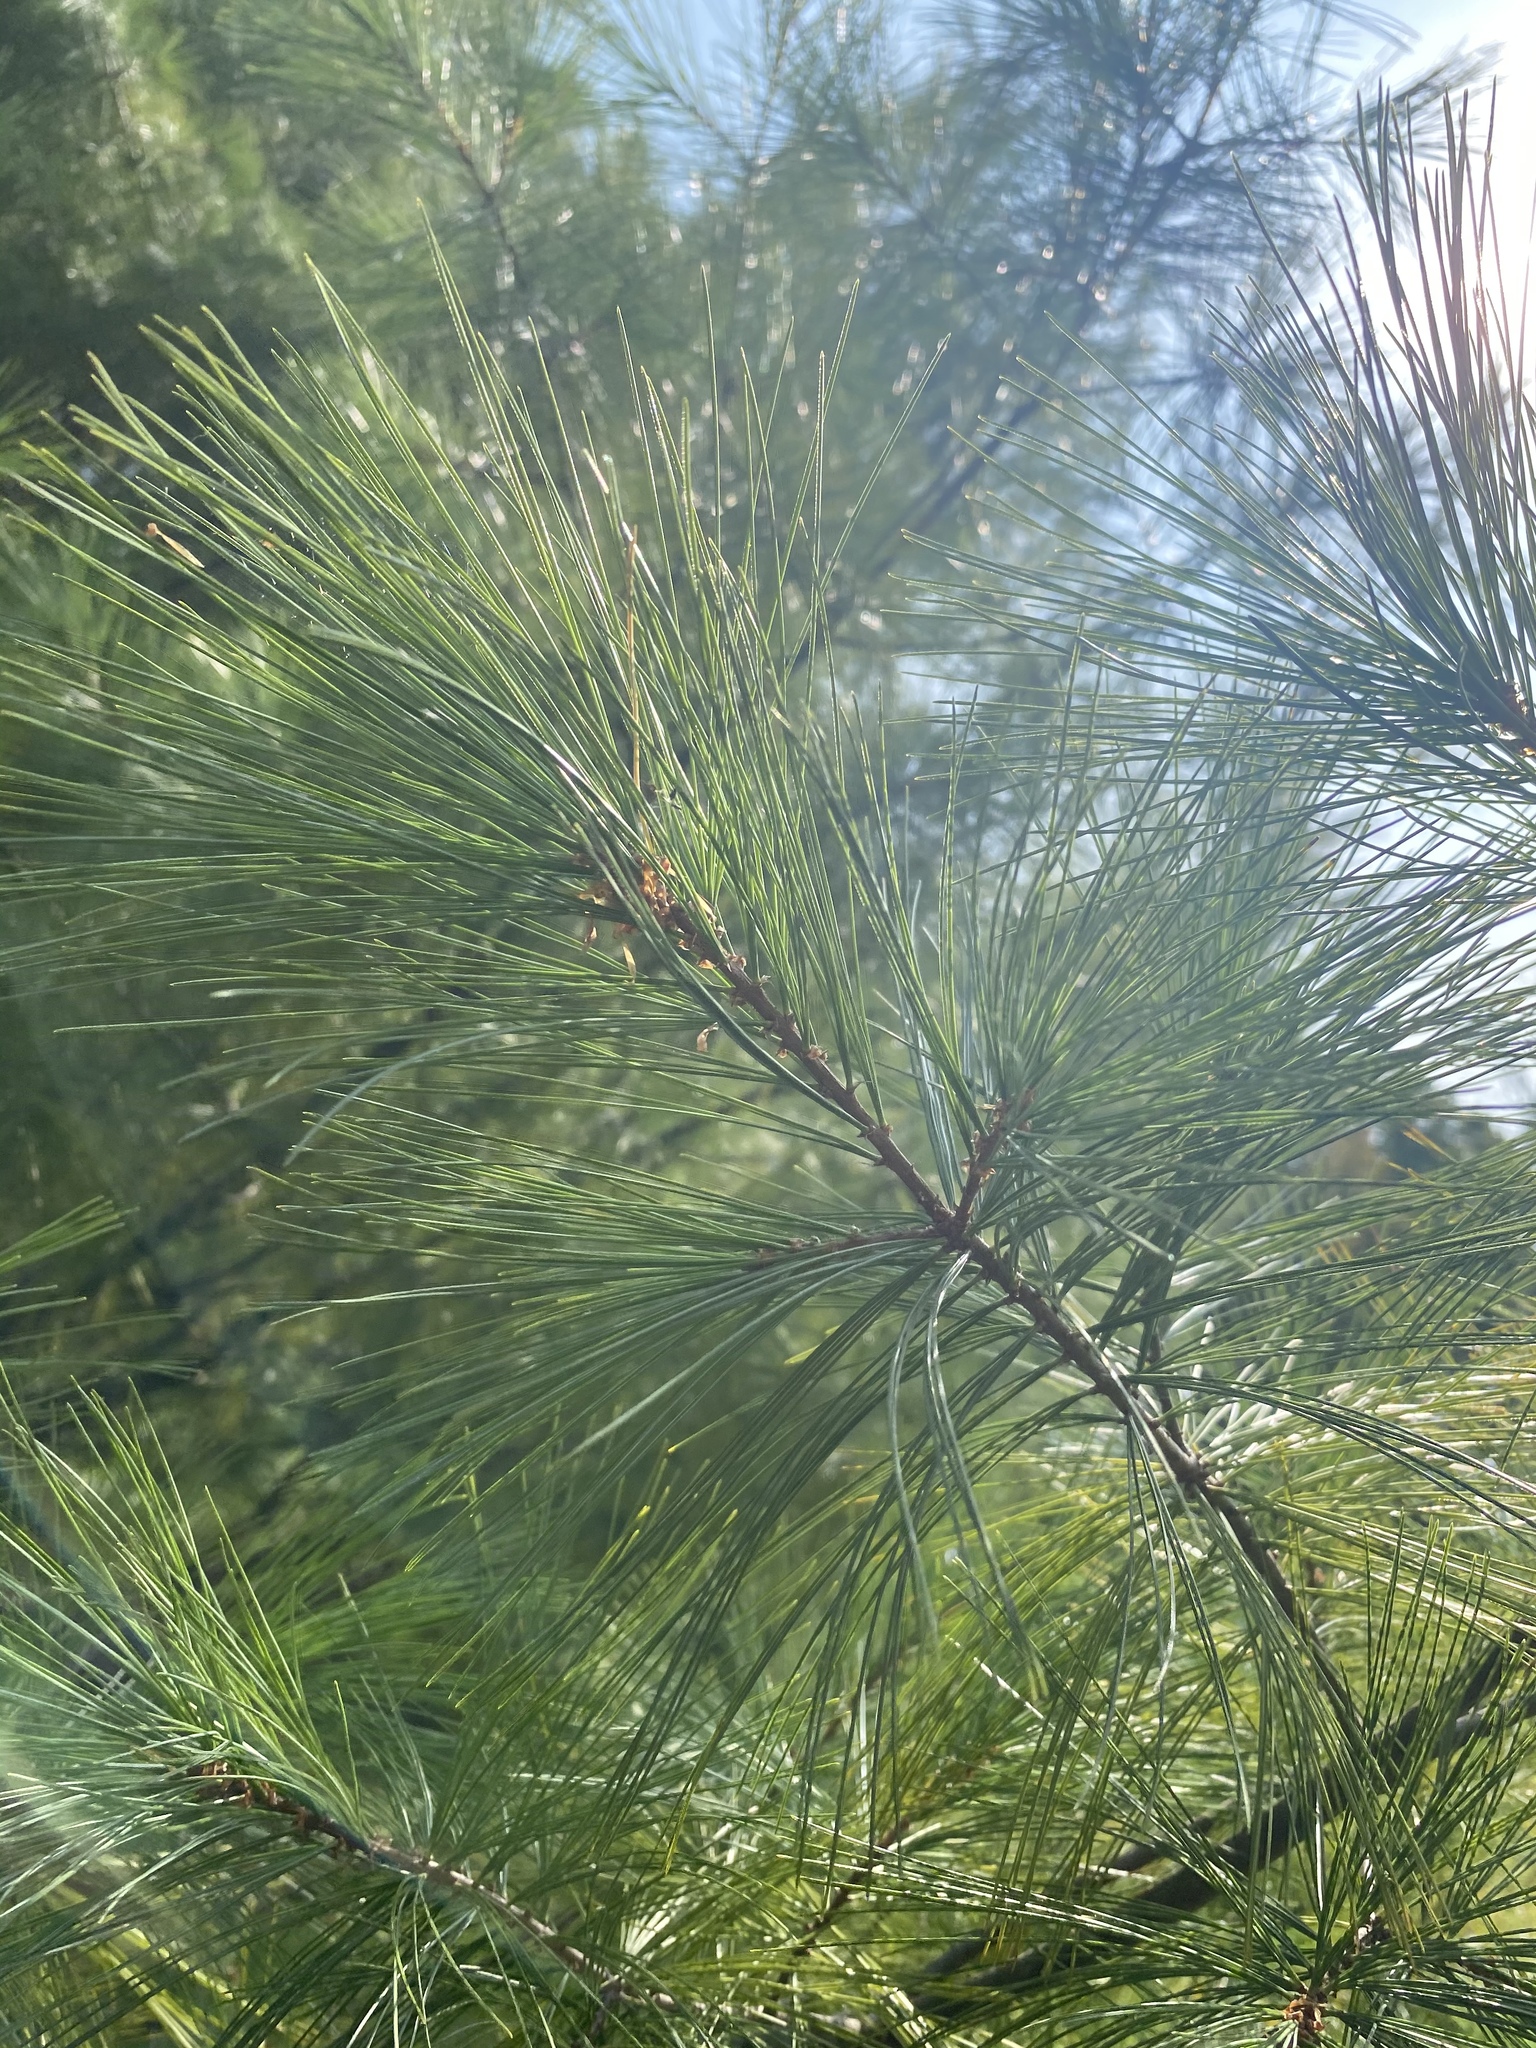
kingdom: Plantae
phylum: Tracheophyta
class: Pinopsida
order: Pinales
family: Pinaceae
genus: Pinus
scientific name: Pinus strobus
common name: Weymouth pine
